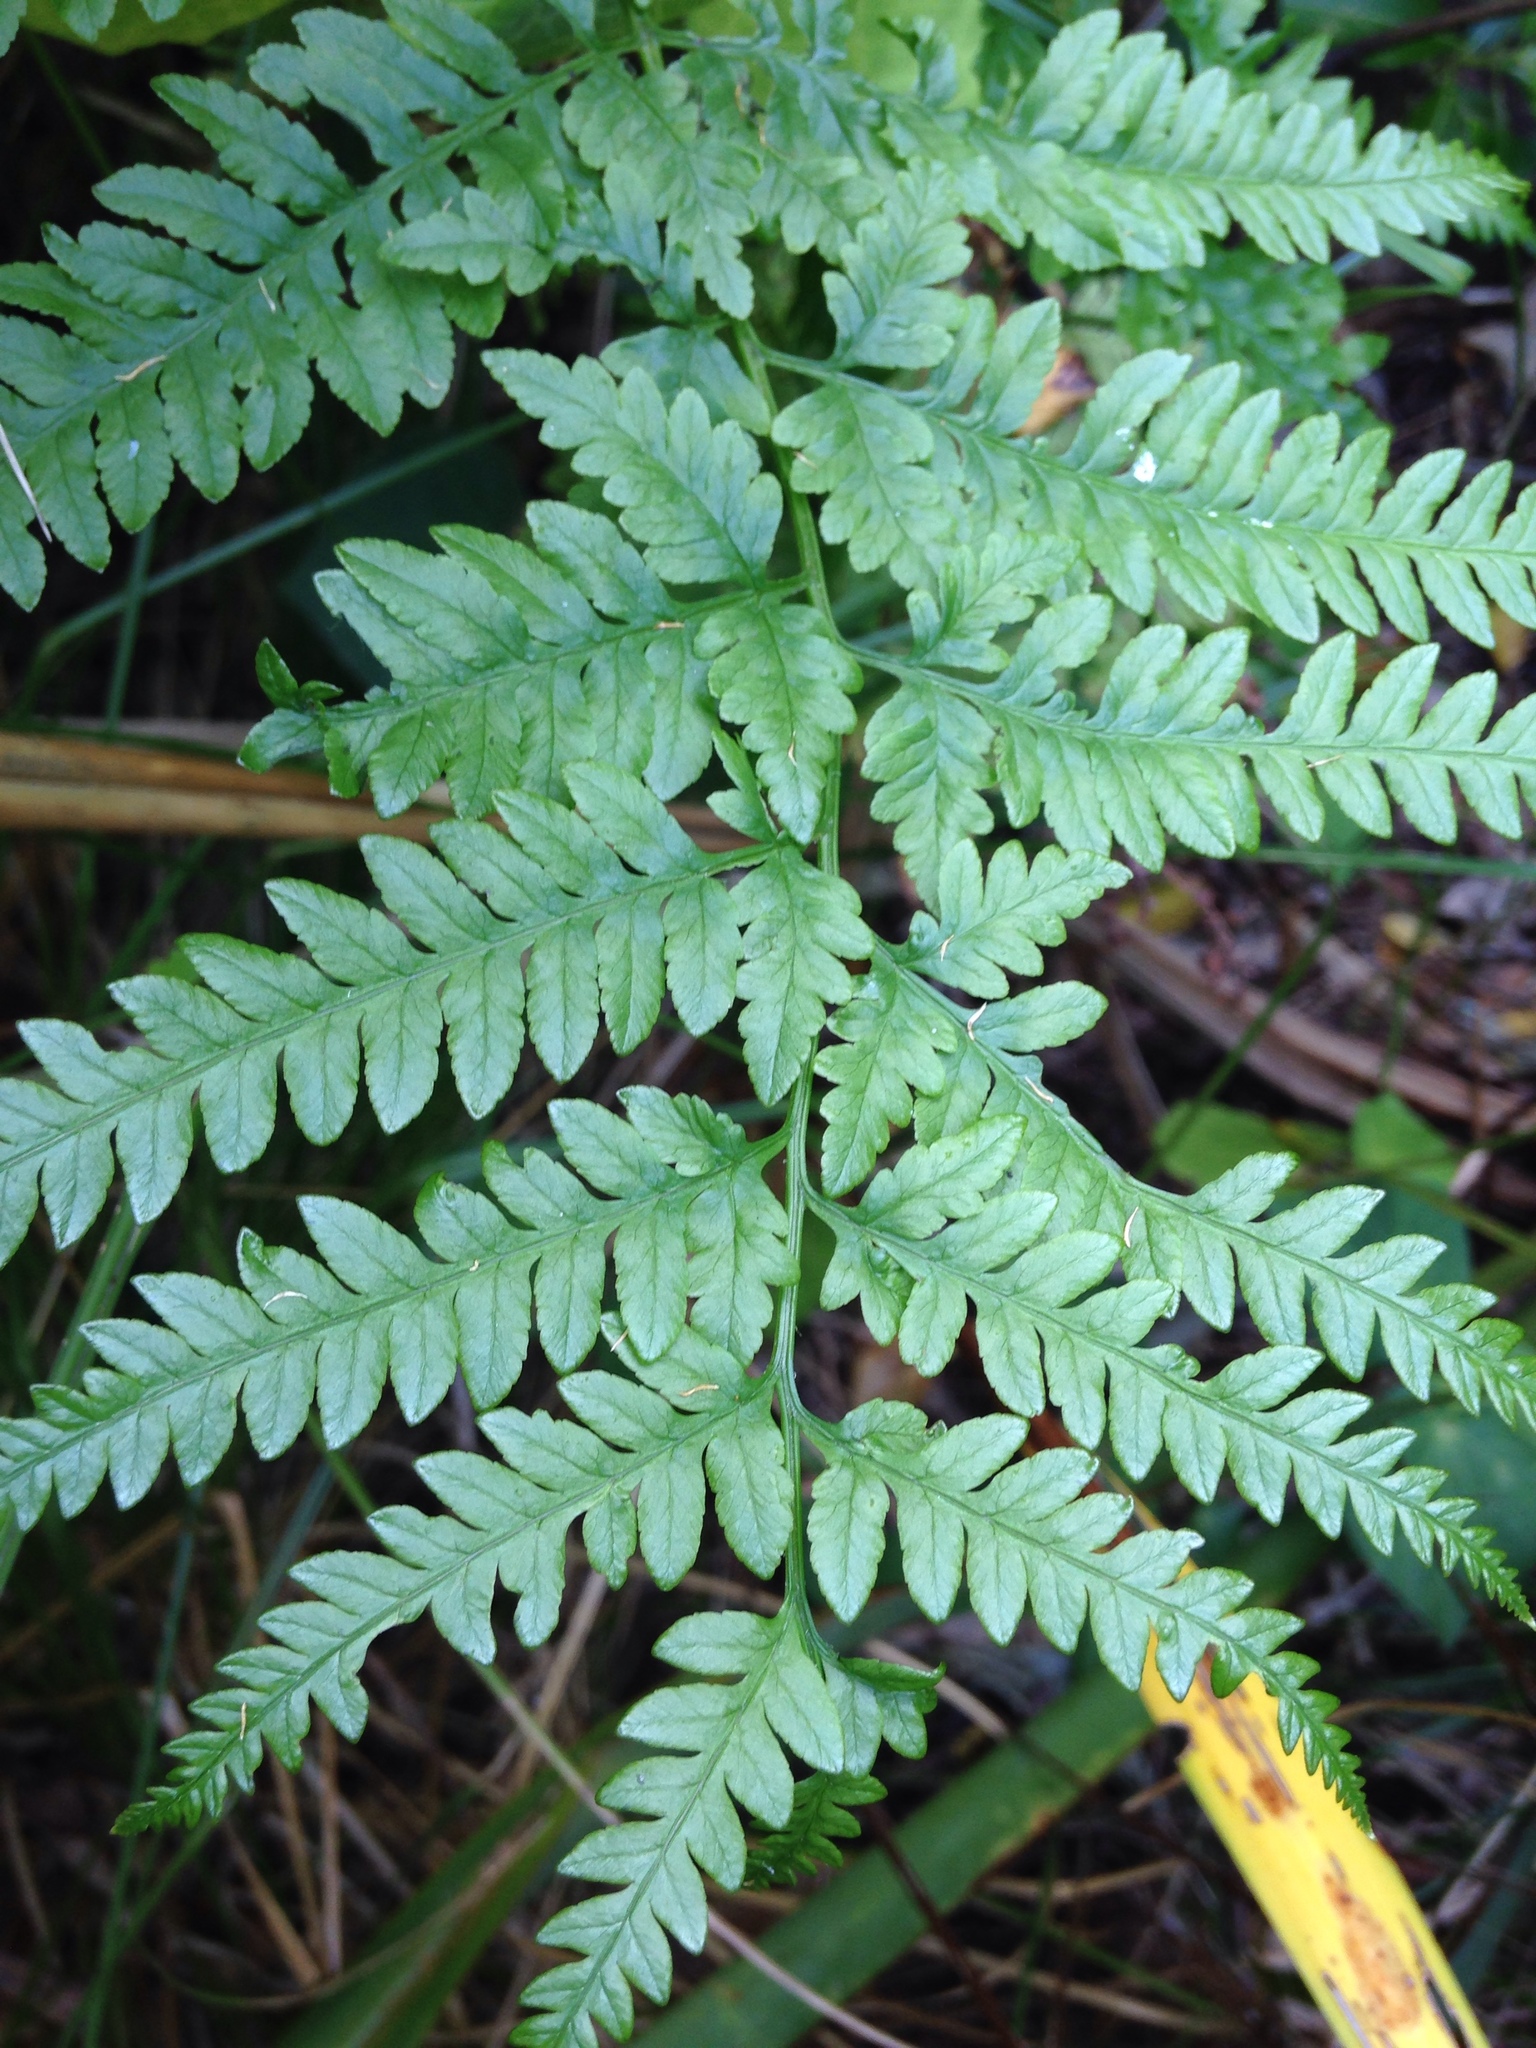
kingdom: Plantae
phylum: Tracheophyta
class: Polypodiopsida
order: Polypodiales
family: Pteridaceae
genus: Pteris
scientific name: Pteris tremula
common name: Australian brake
